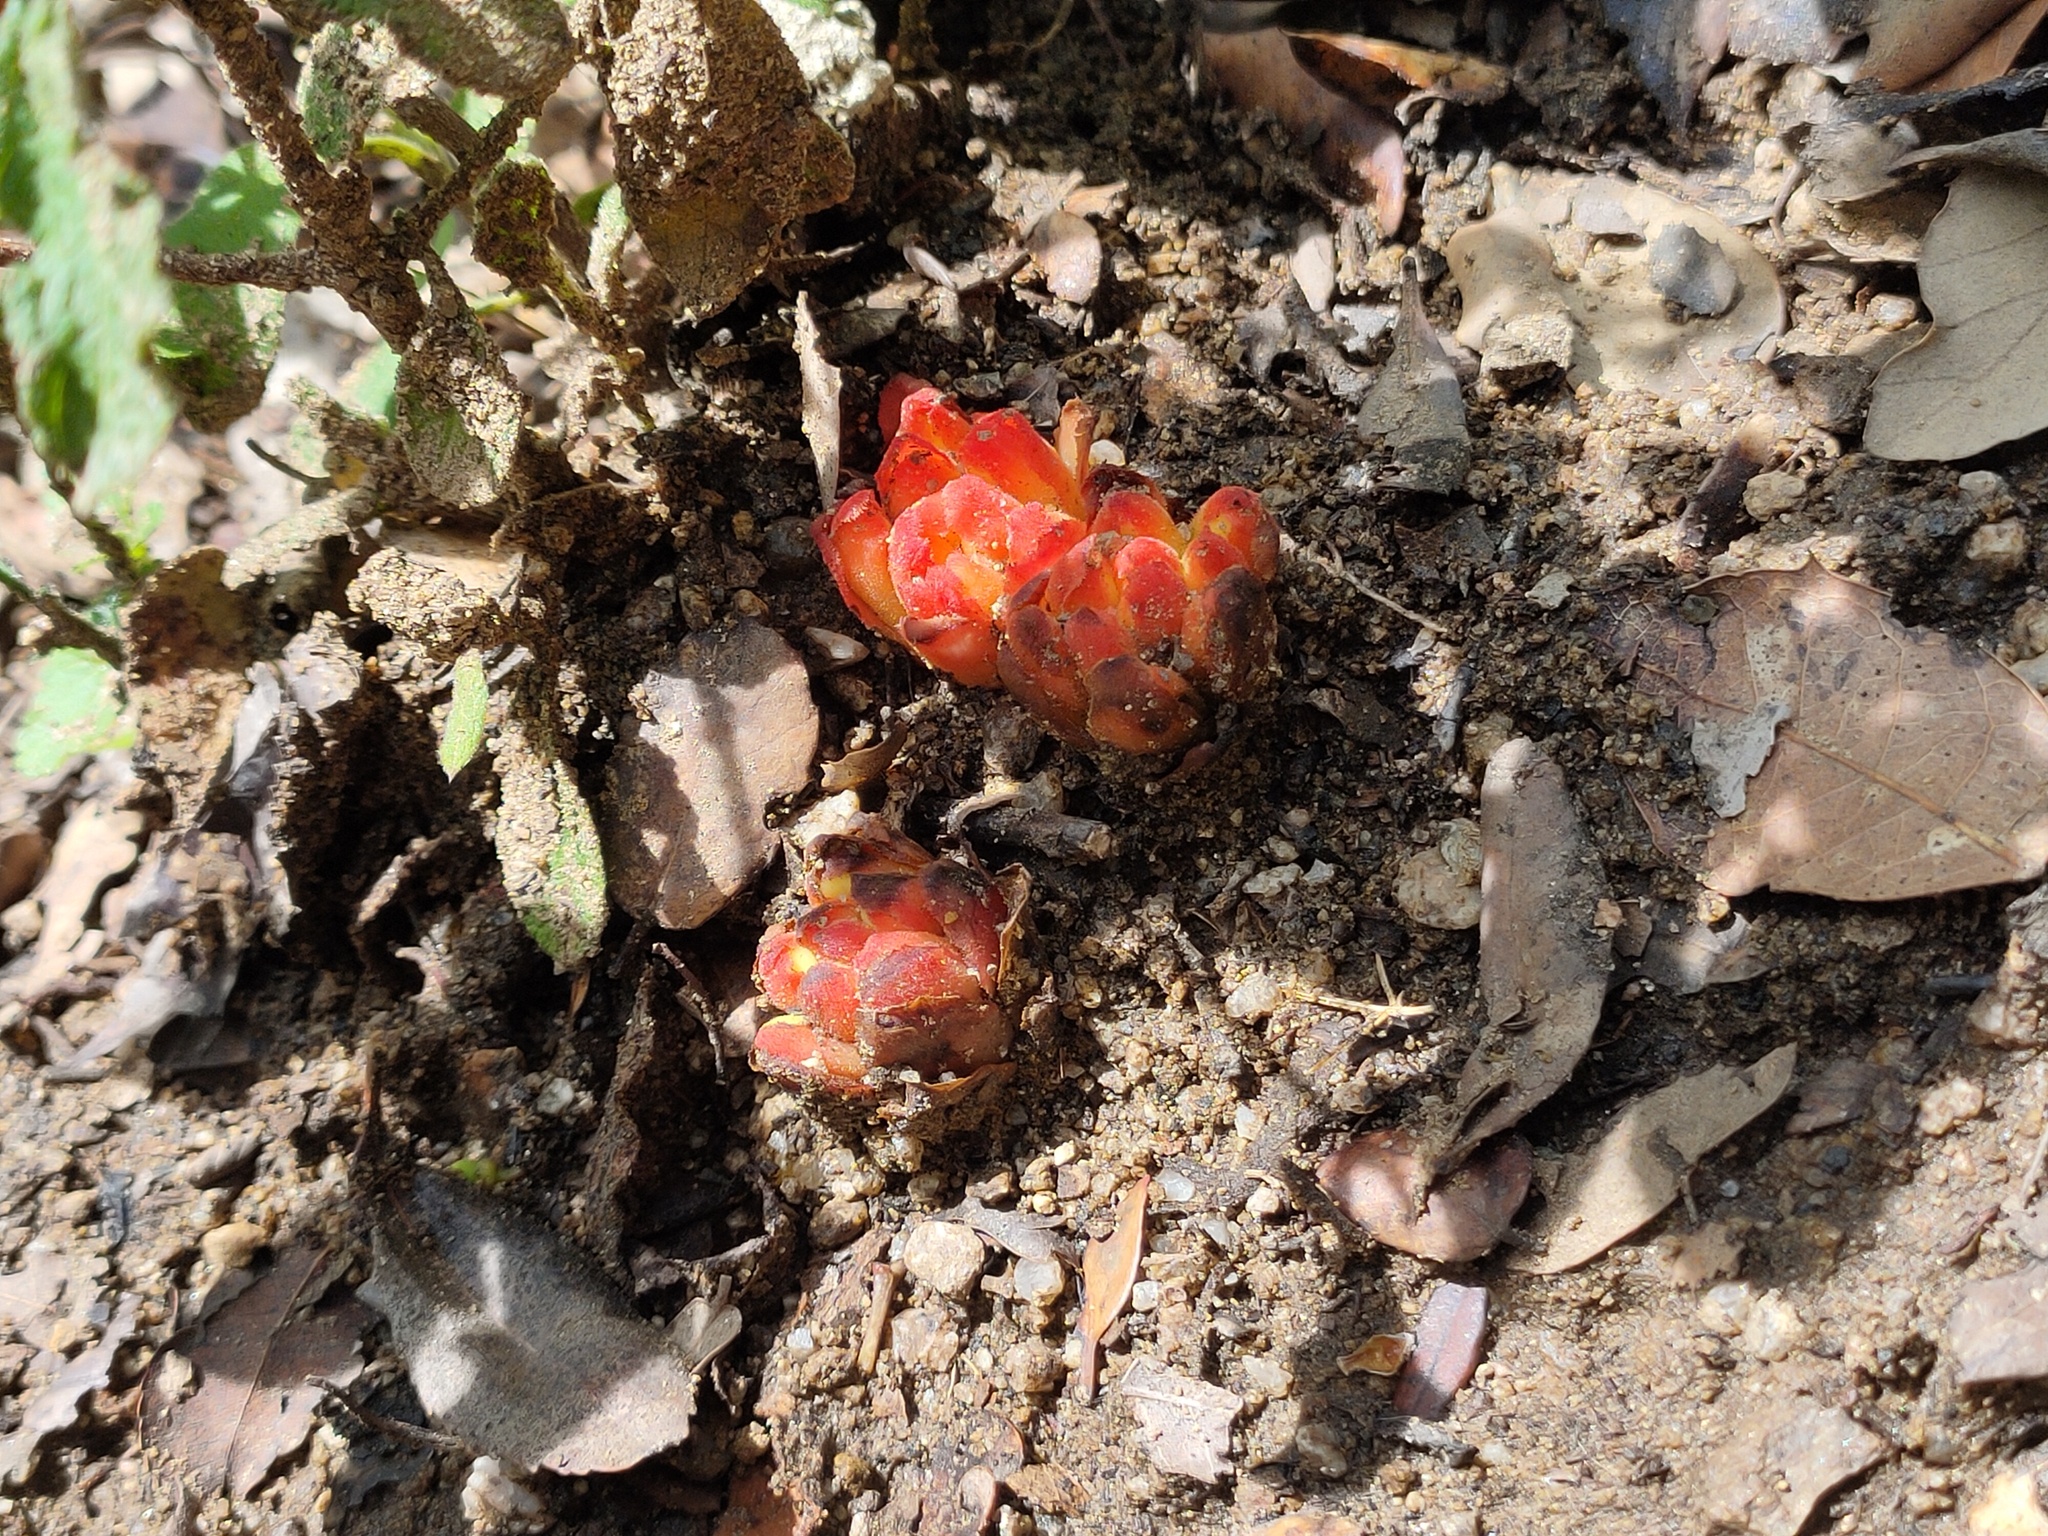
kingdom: Plantae
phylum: Tracheophyta
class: Magnoliopsida
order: Malvales
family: Cytinaceae
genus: Cytinus
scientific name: Cytinus hypocistis
